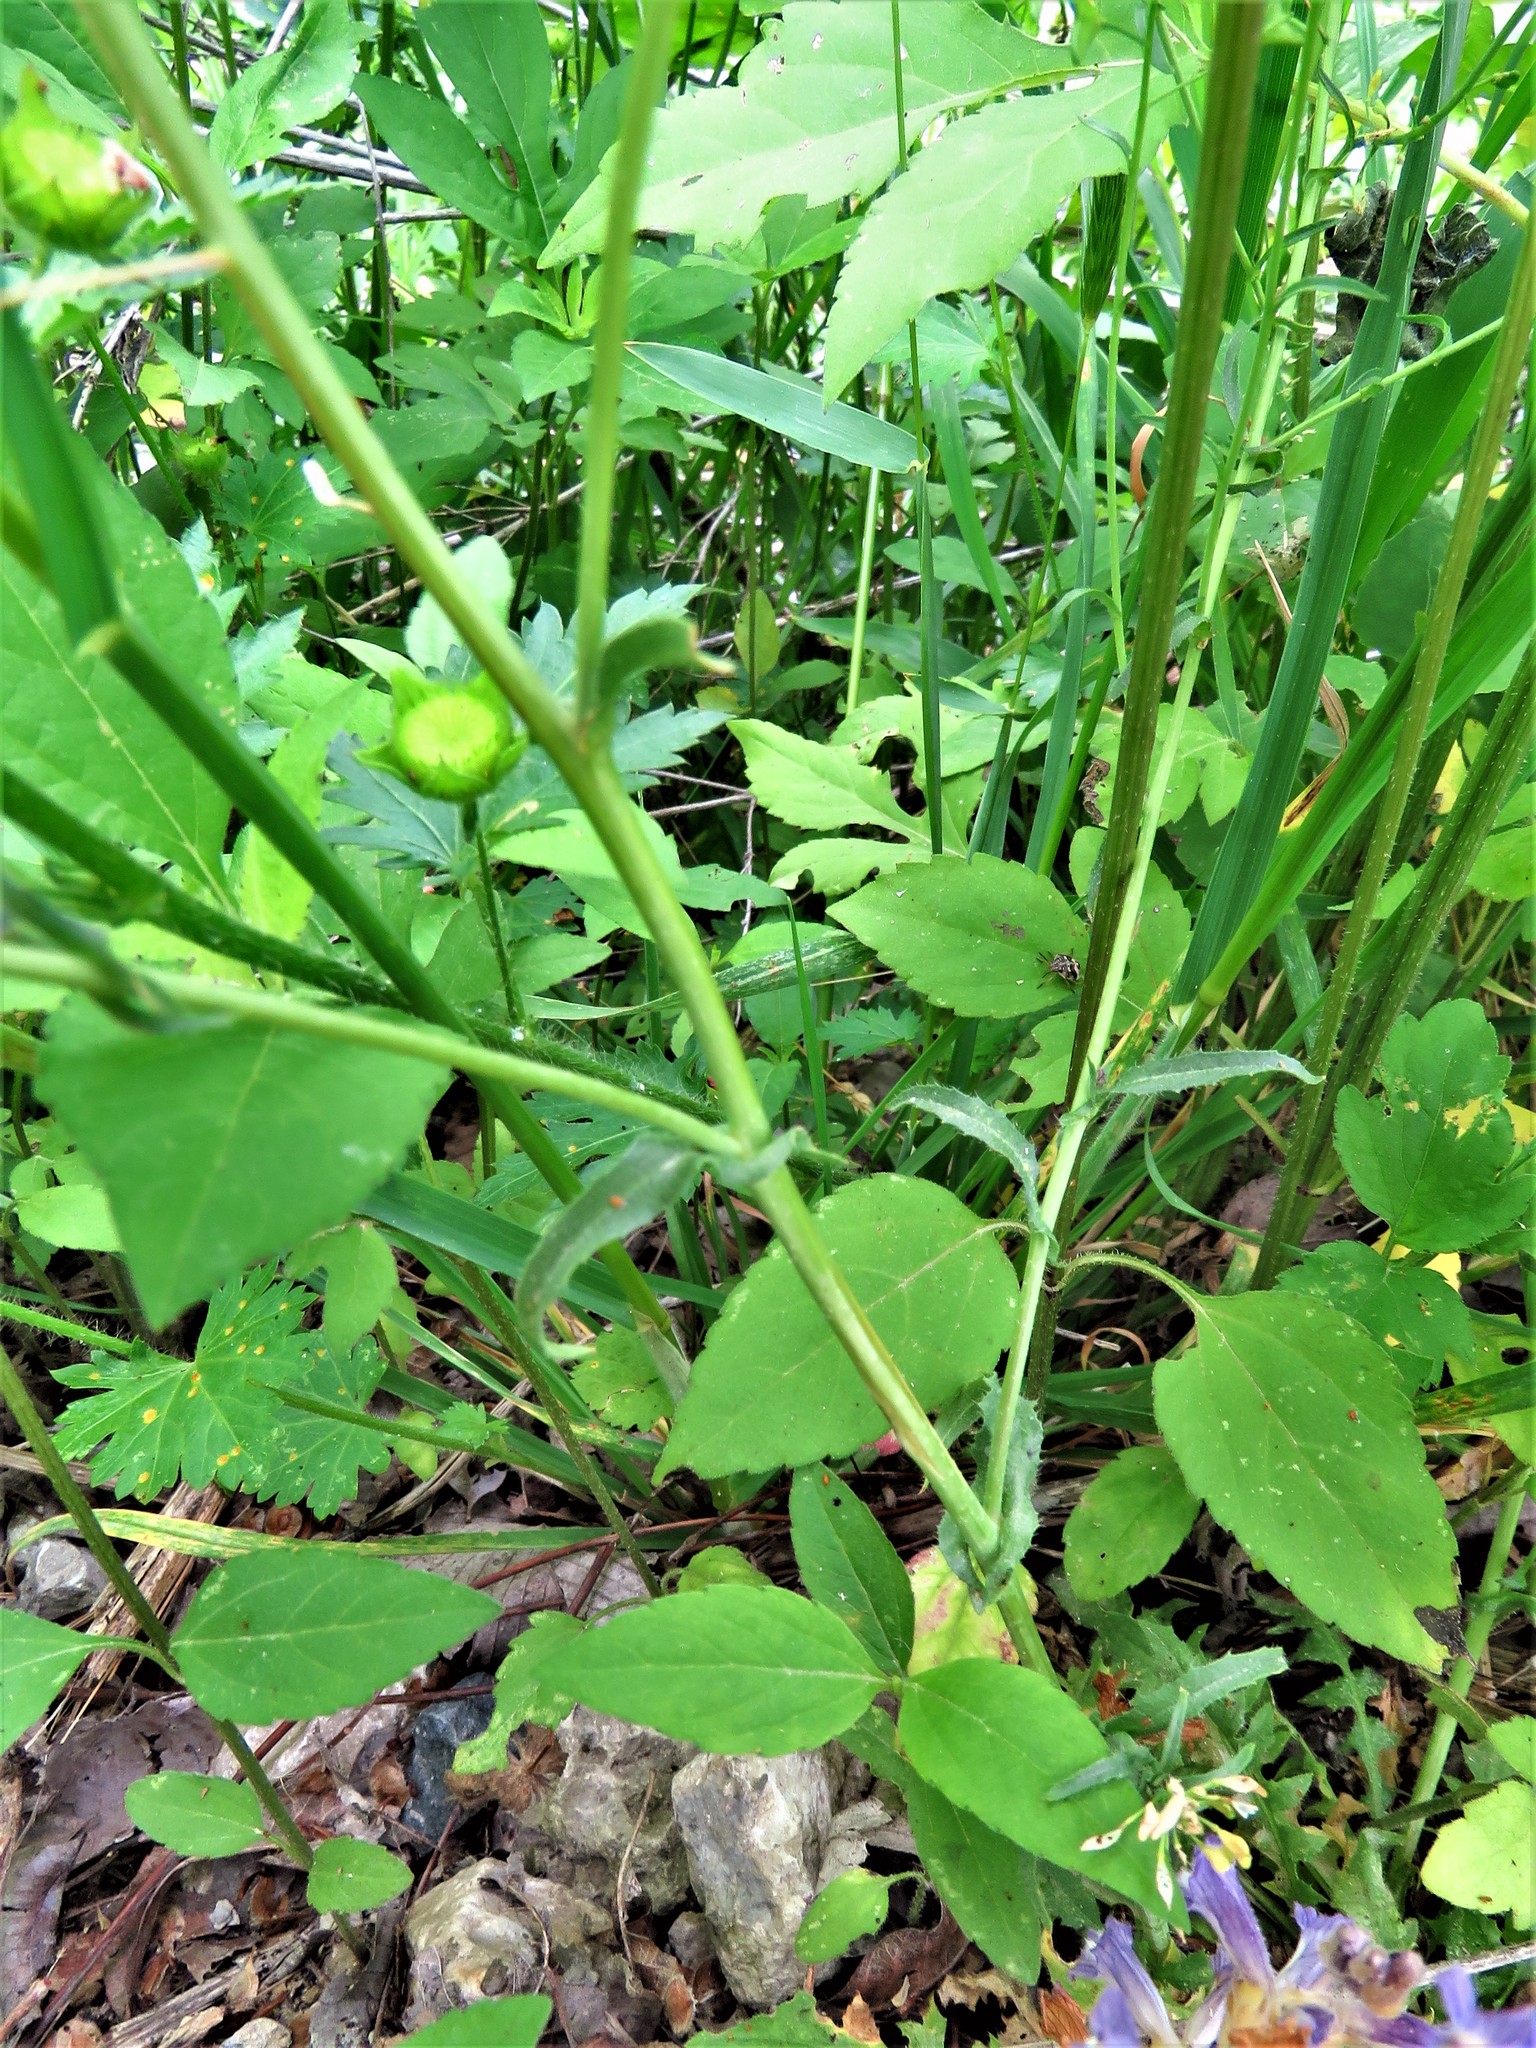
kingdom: Plantae
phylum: Tracheophyta
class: Magnoliopsida
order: Brassicales
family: Brassicaceae
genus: Capsella
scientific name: Capsella bursa-pastoris
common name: Shepherd's purse
